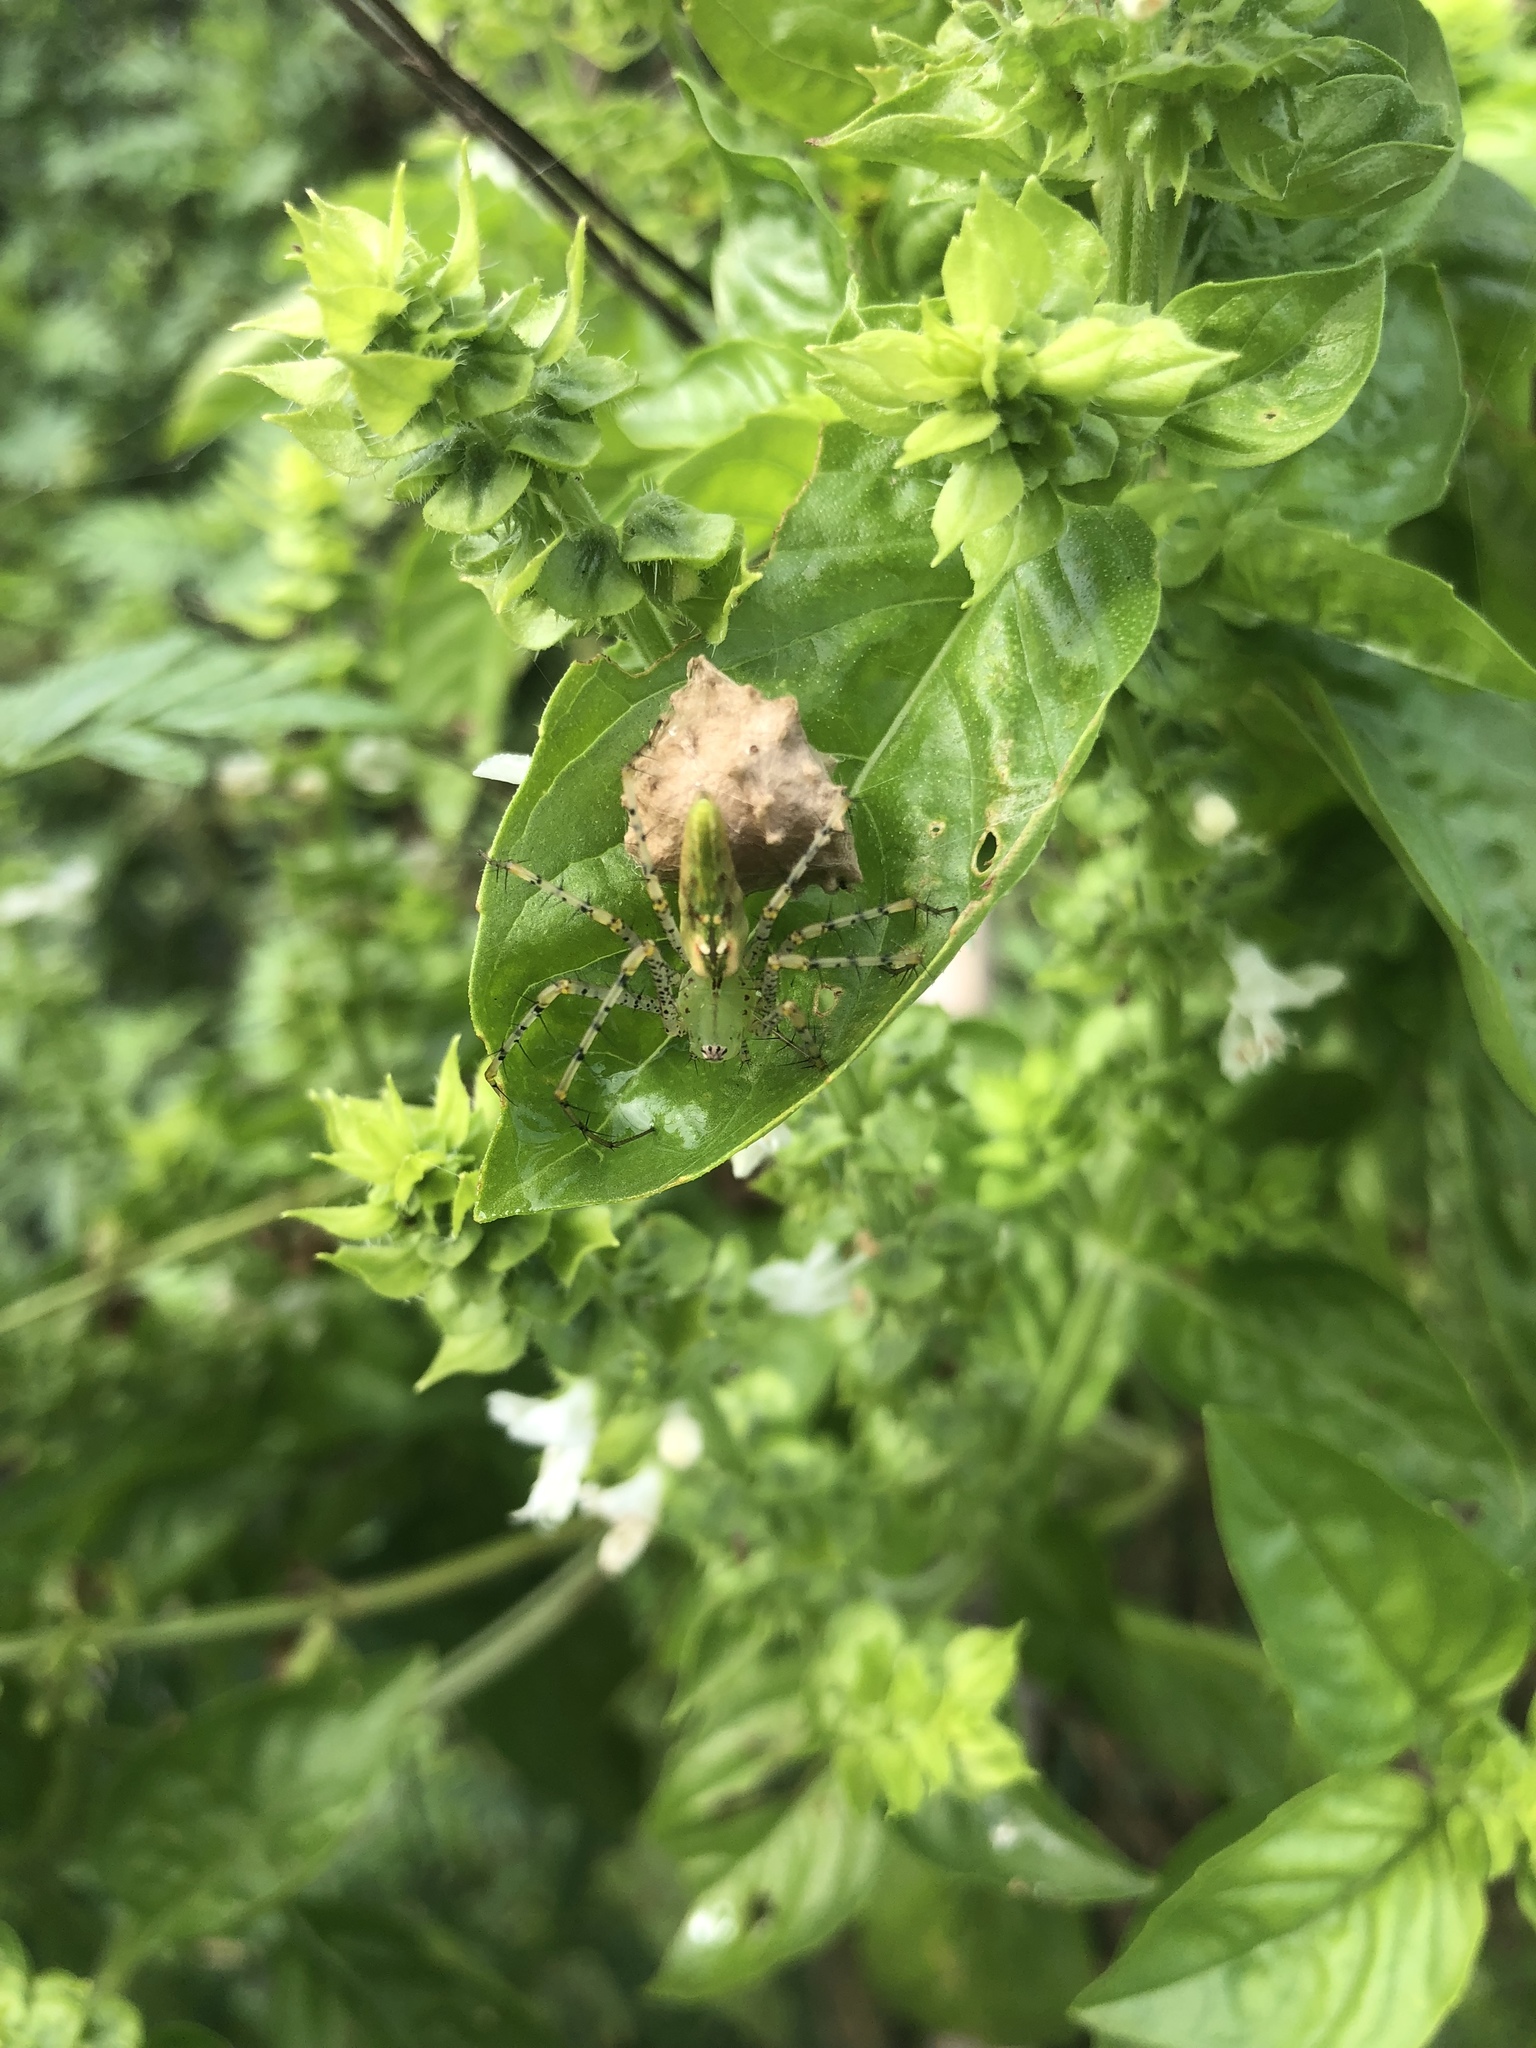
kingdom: Animalia
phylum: Arthropoda
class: Arachnida
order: Araneae
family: Oxyopidae
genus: Peucetia
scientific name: Peucetia viridans
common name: Lynx spiders
